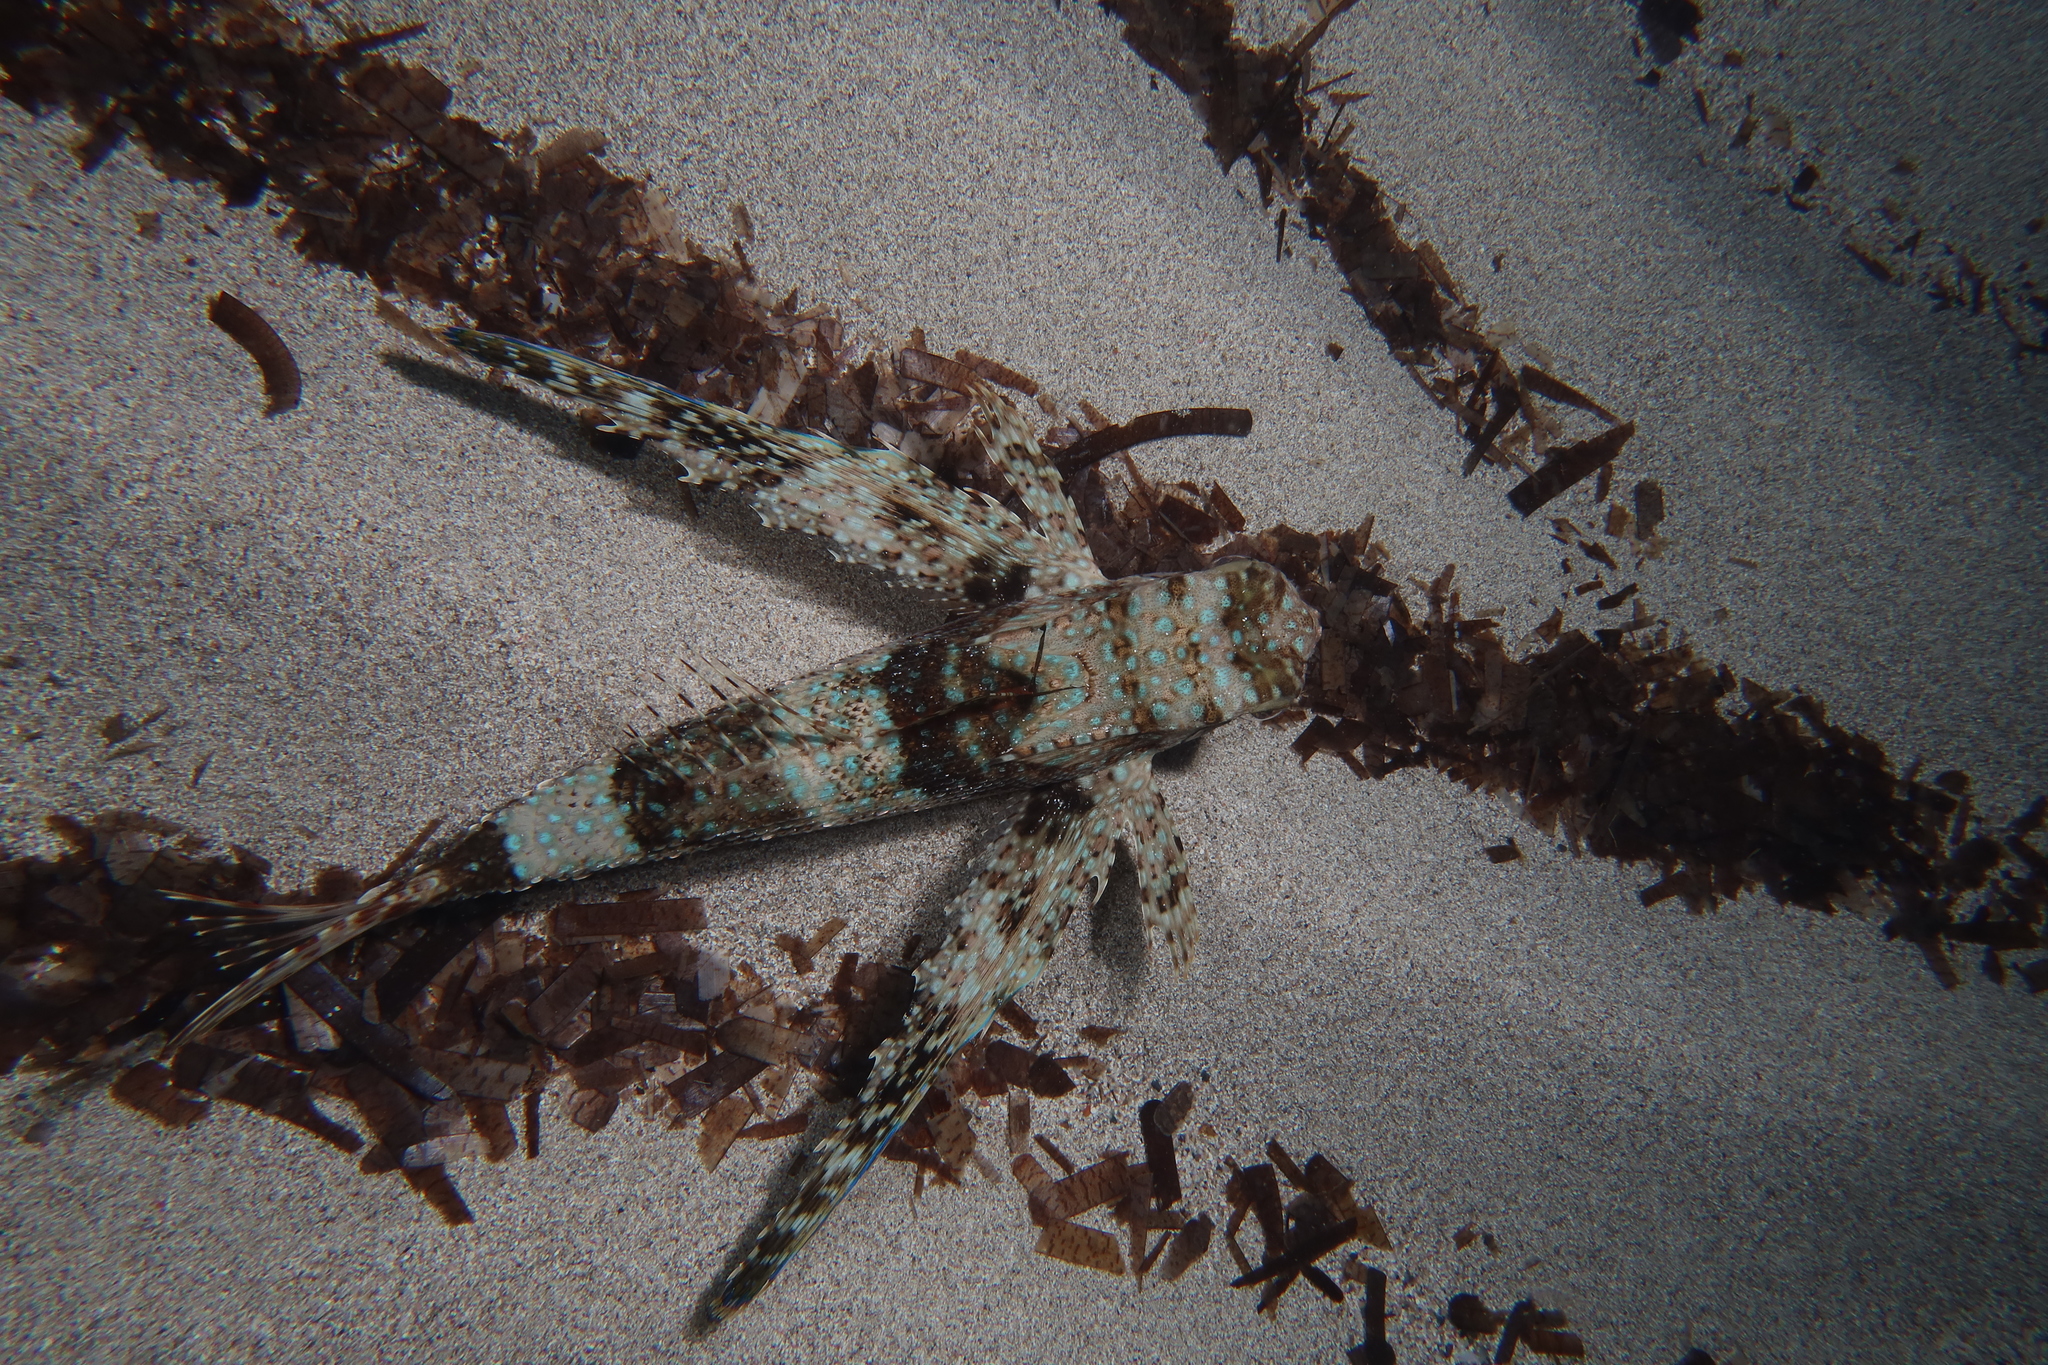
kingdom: Animalia
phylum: Chordata
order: Scorpaeniformes
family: Dactylopteridae
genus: Dactylopterus
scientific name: Dactylopterus volitans
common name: Flying gurnard
